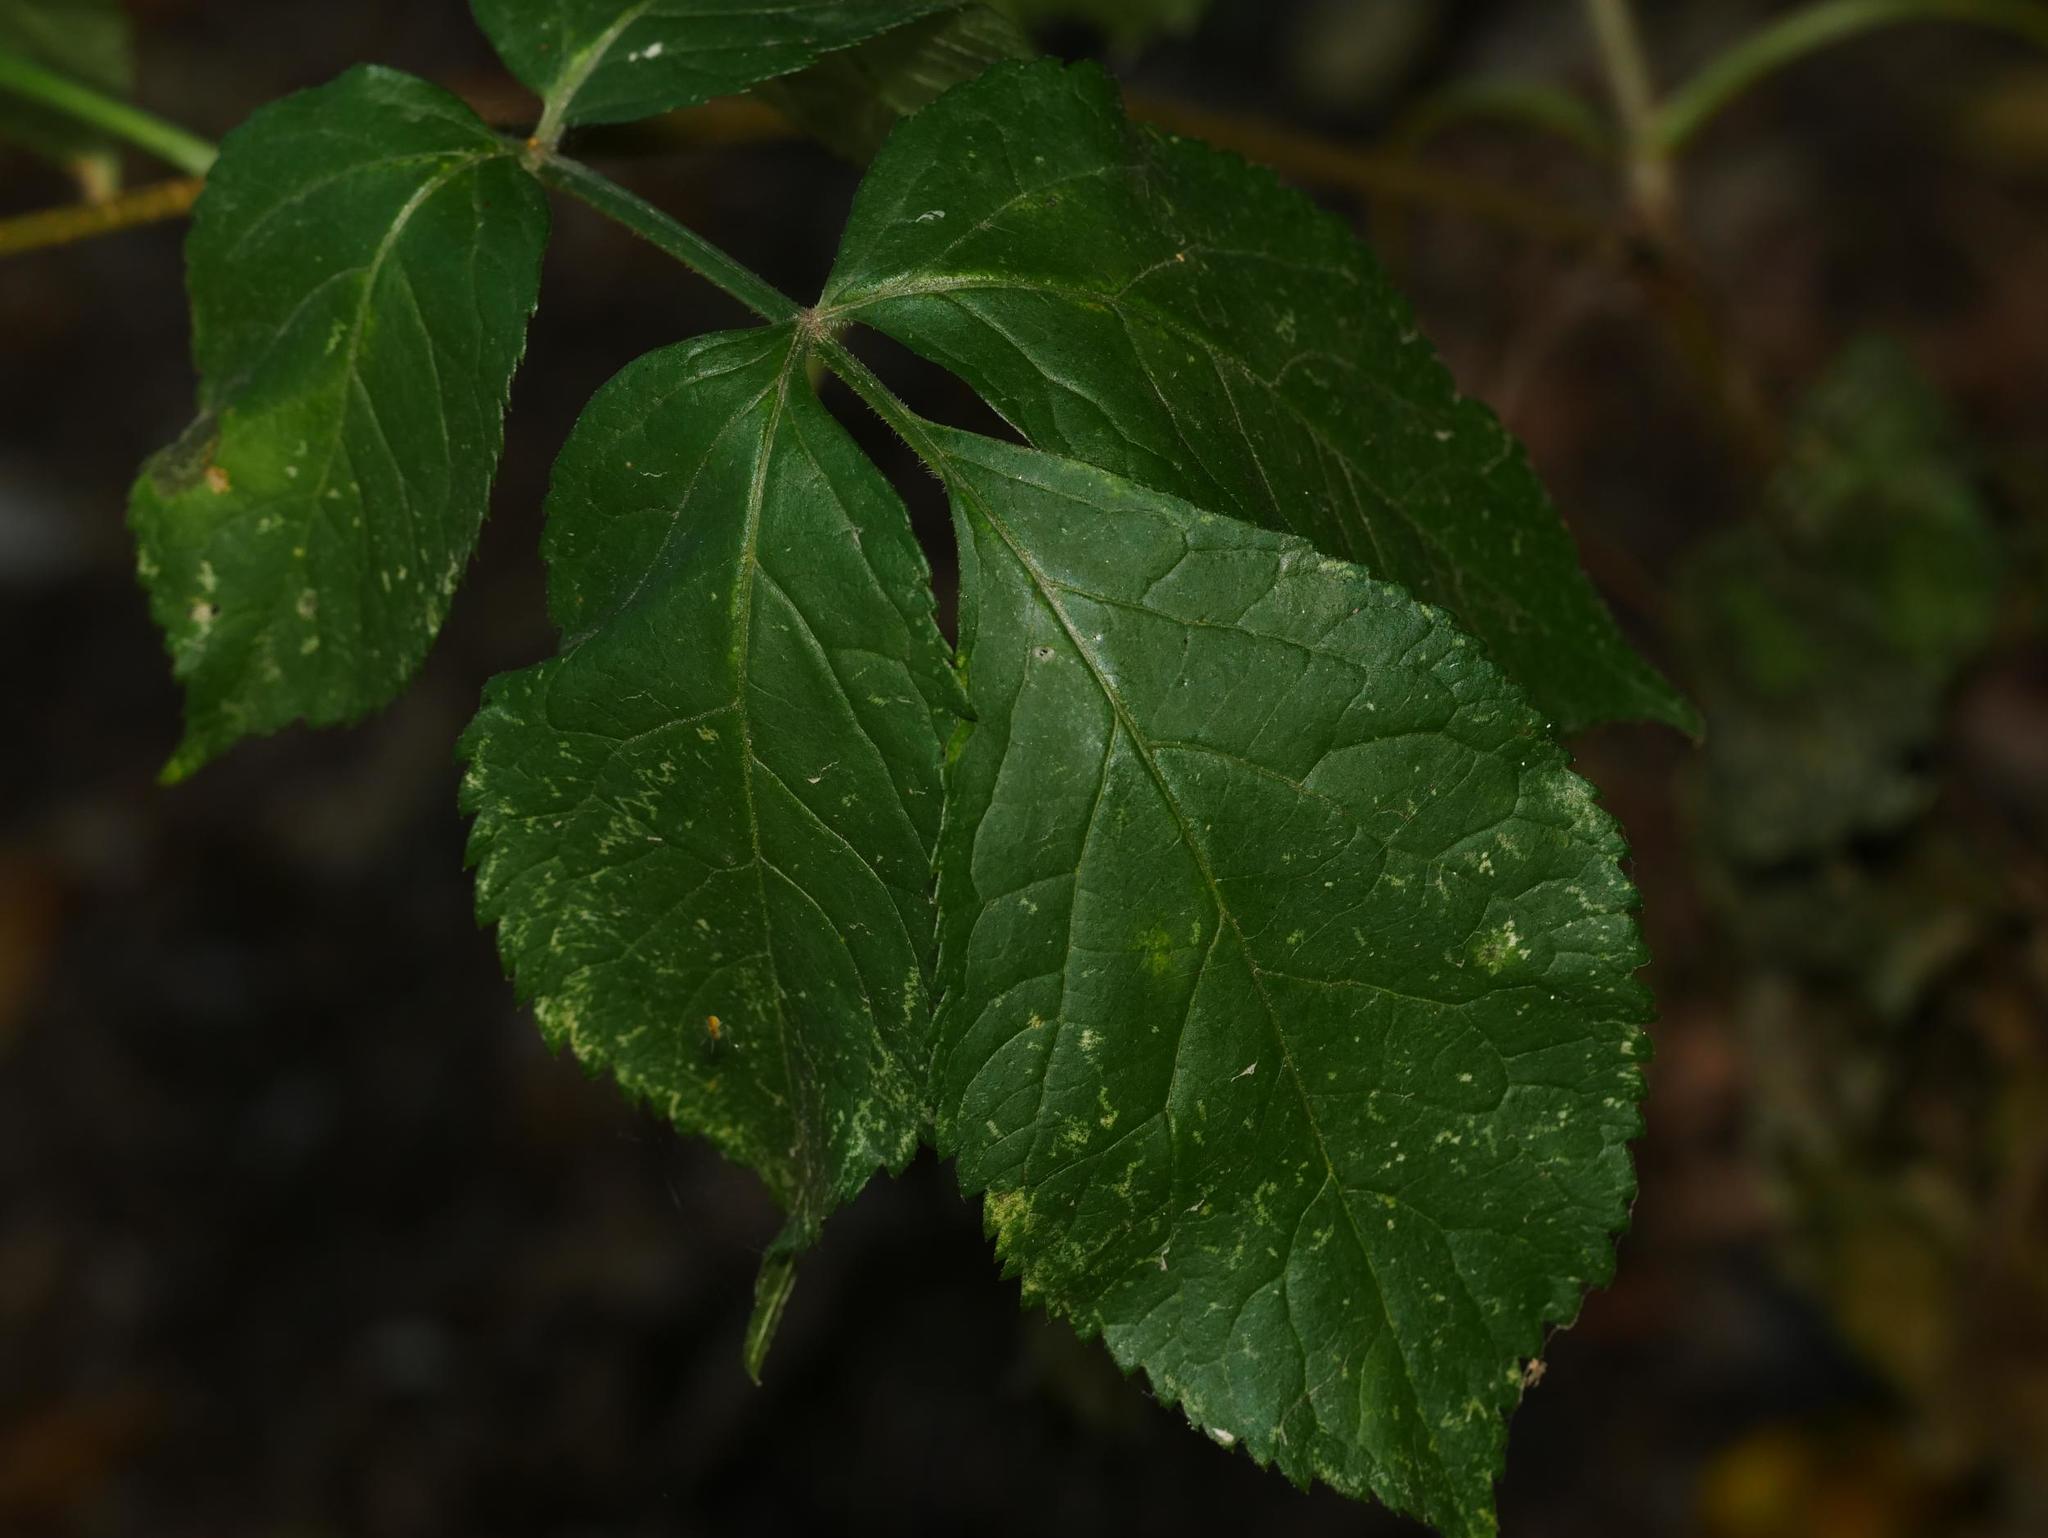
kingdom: Plantae
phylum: Tracheophyta
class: Magnoliopsida
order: Dipsacales
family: Viburnaceae
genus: Sambucus
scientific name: Sambucus nigra
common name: Elder
